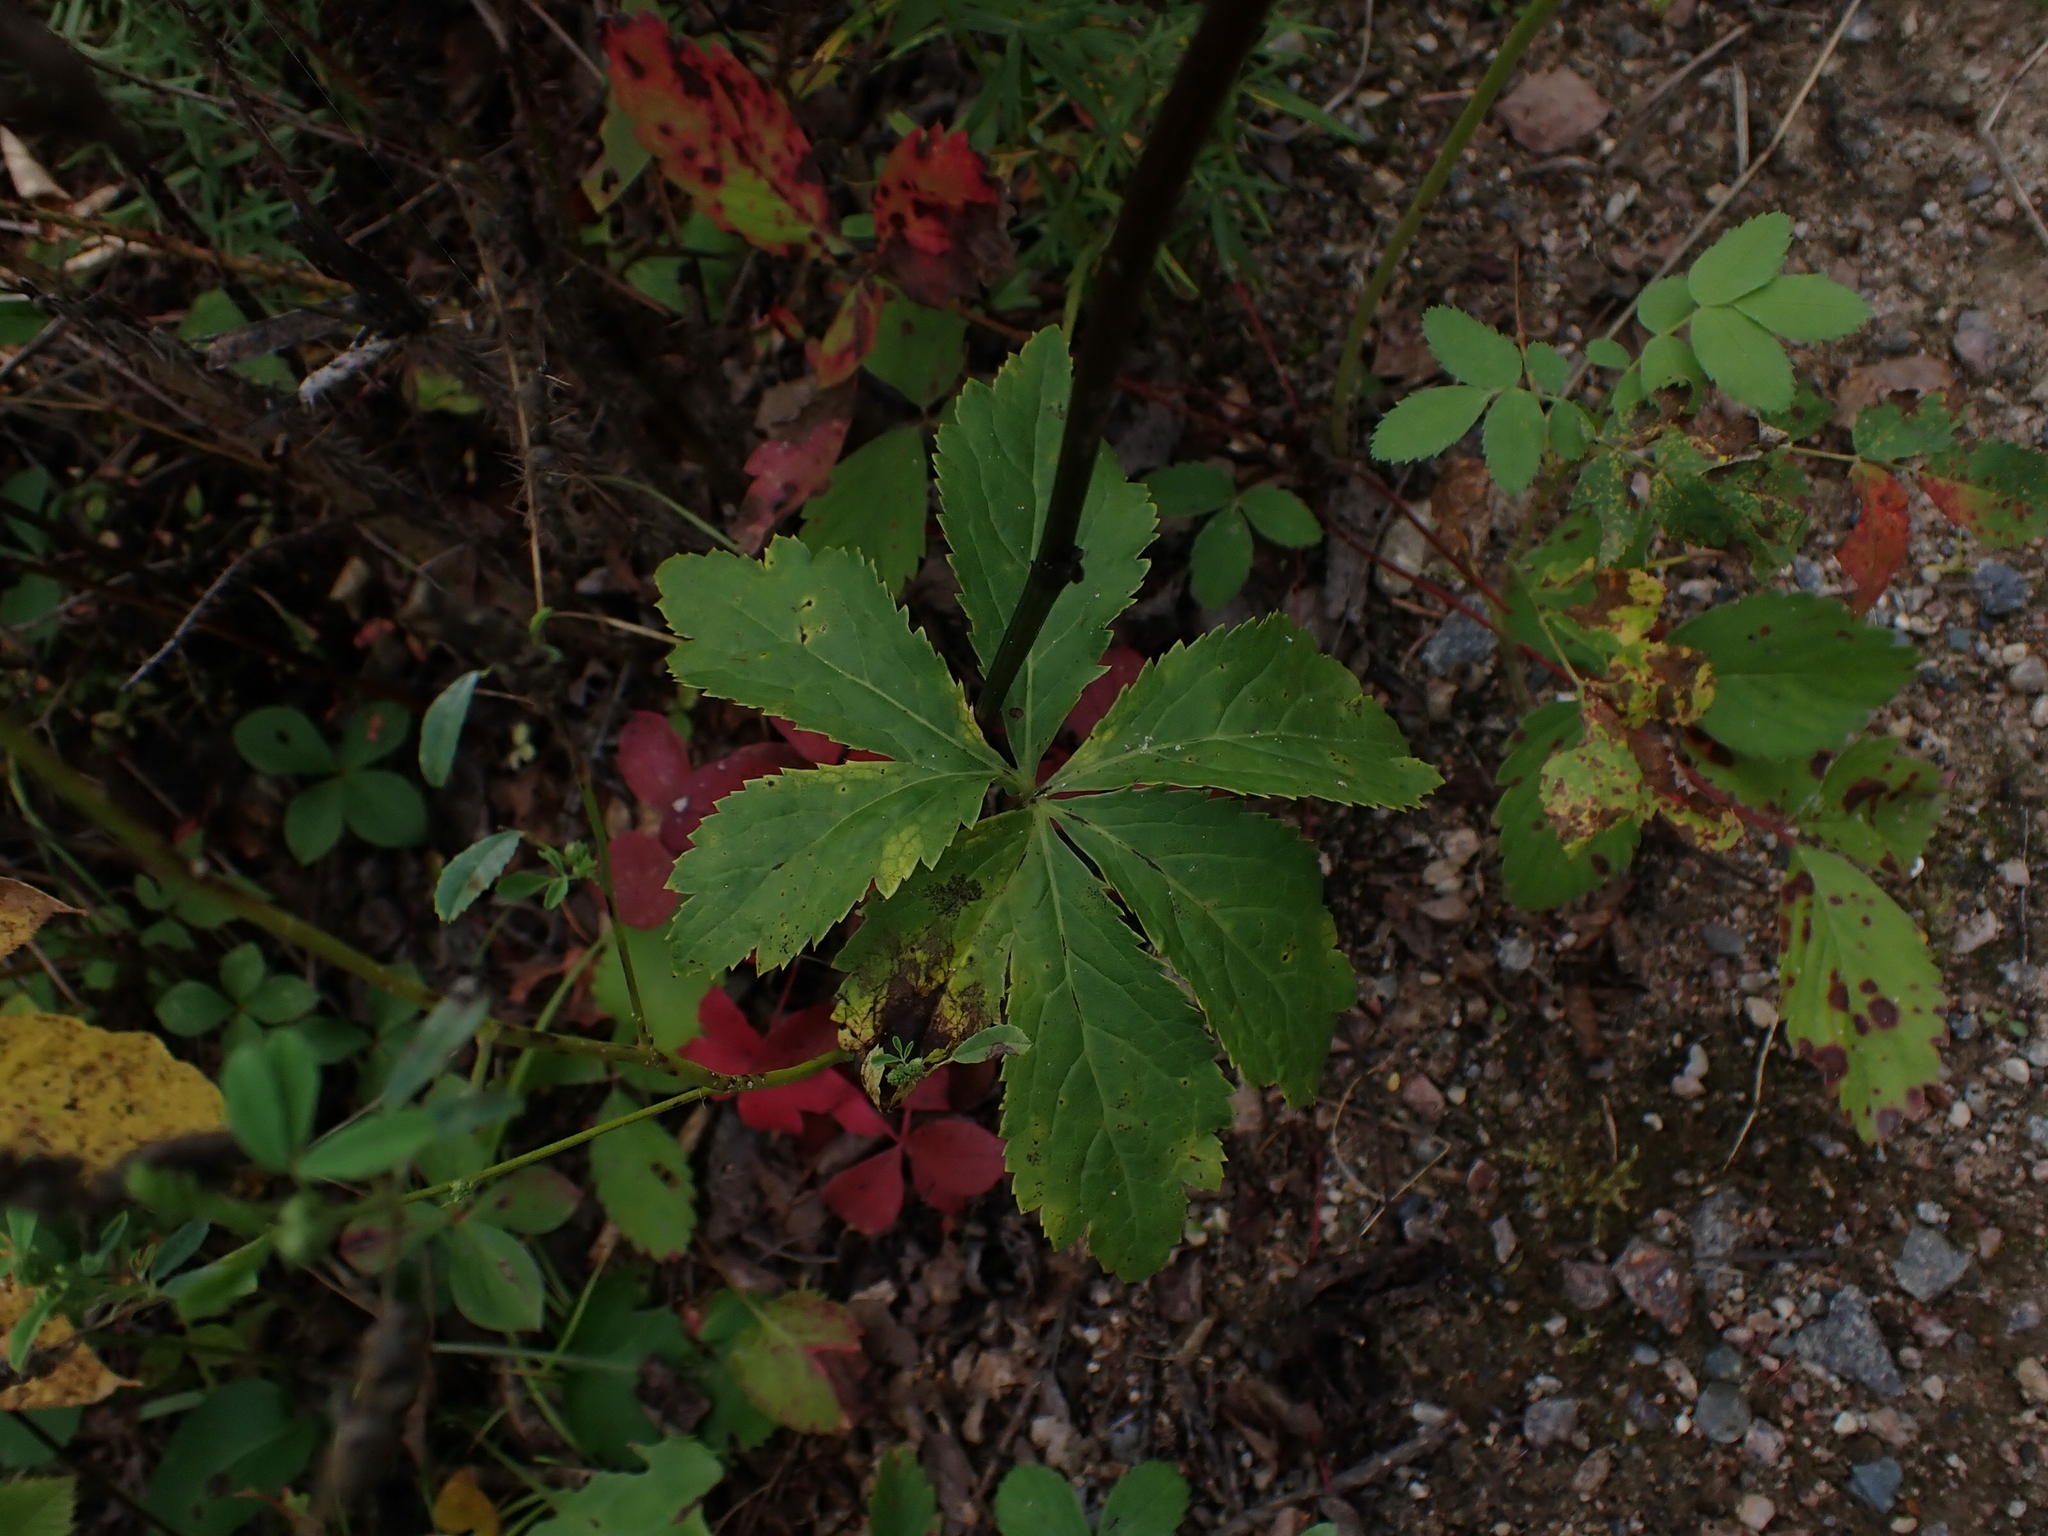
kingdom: Plantae
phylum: Tracheophyta
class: Magnoliopsida
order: Apiales
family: Apiaceae
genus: Sanicula
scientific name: Sanicula marilandica
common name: Black snakeroot
